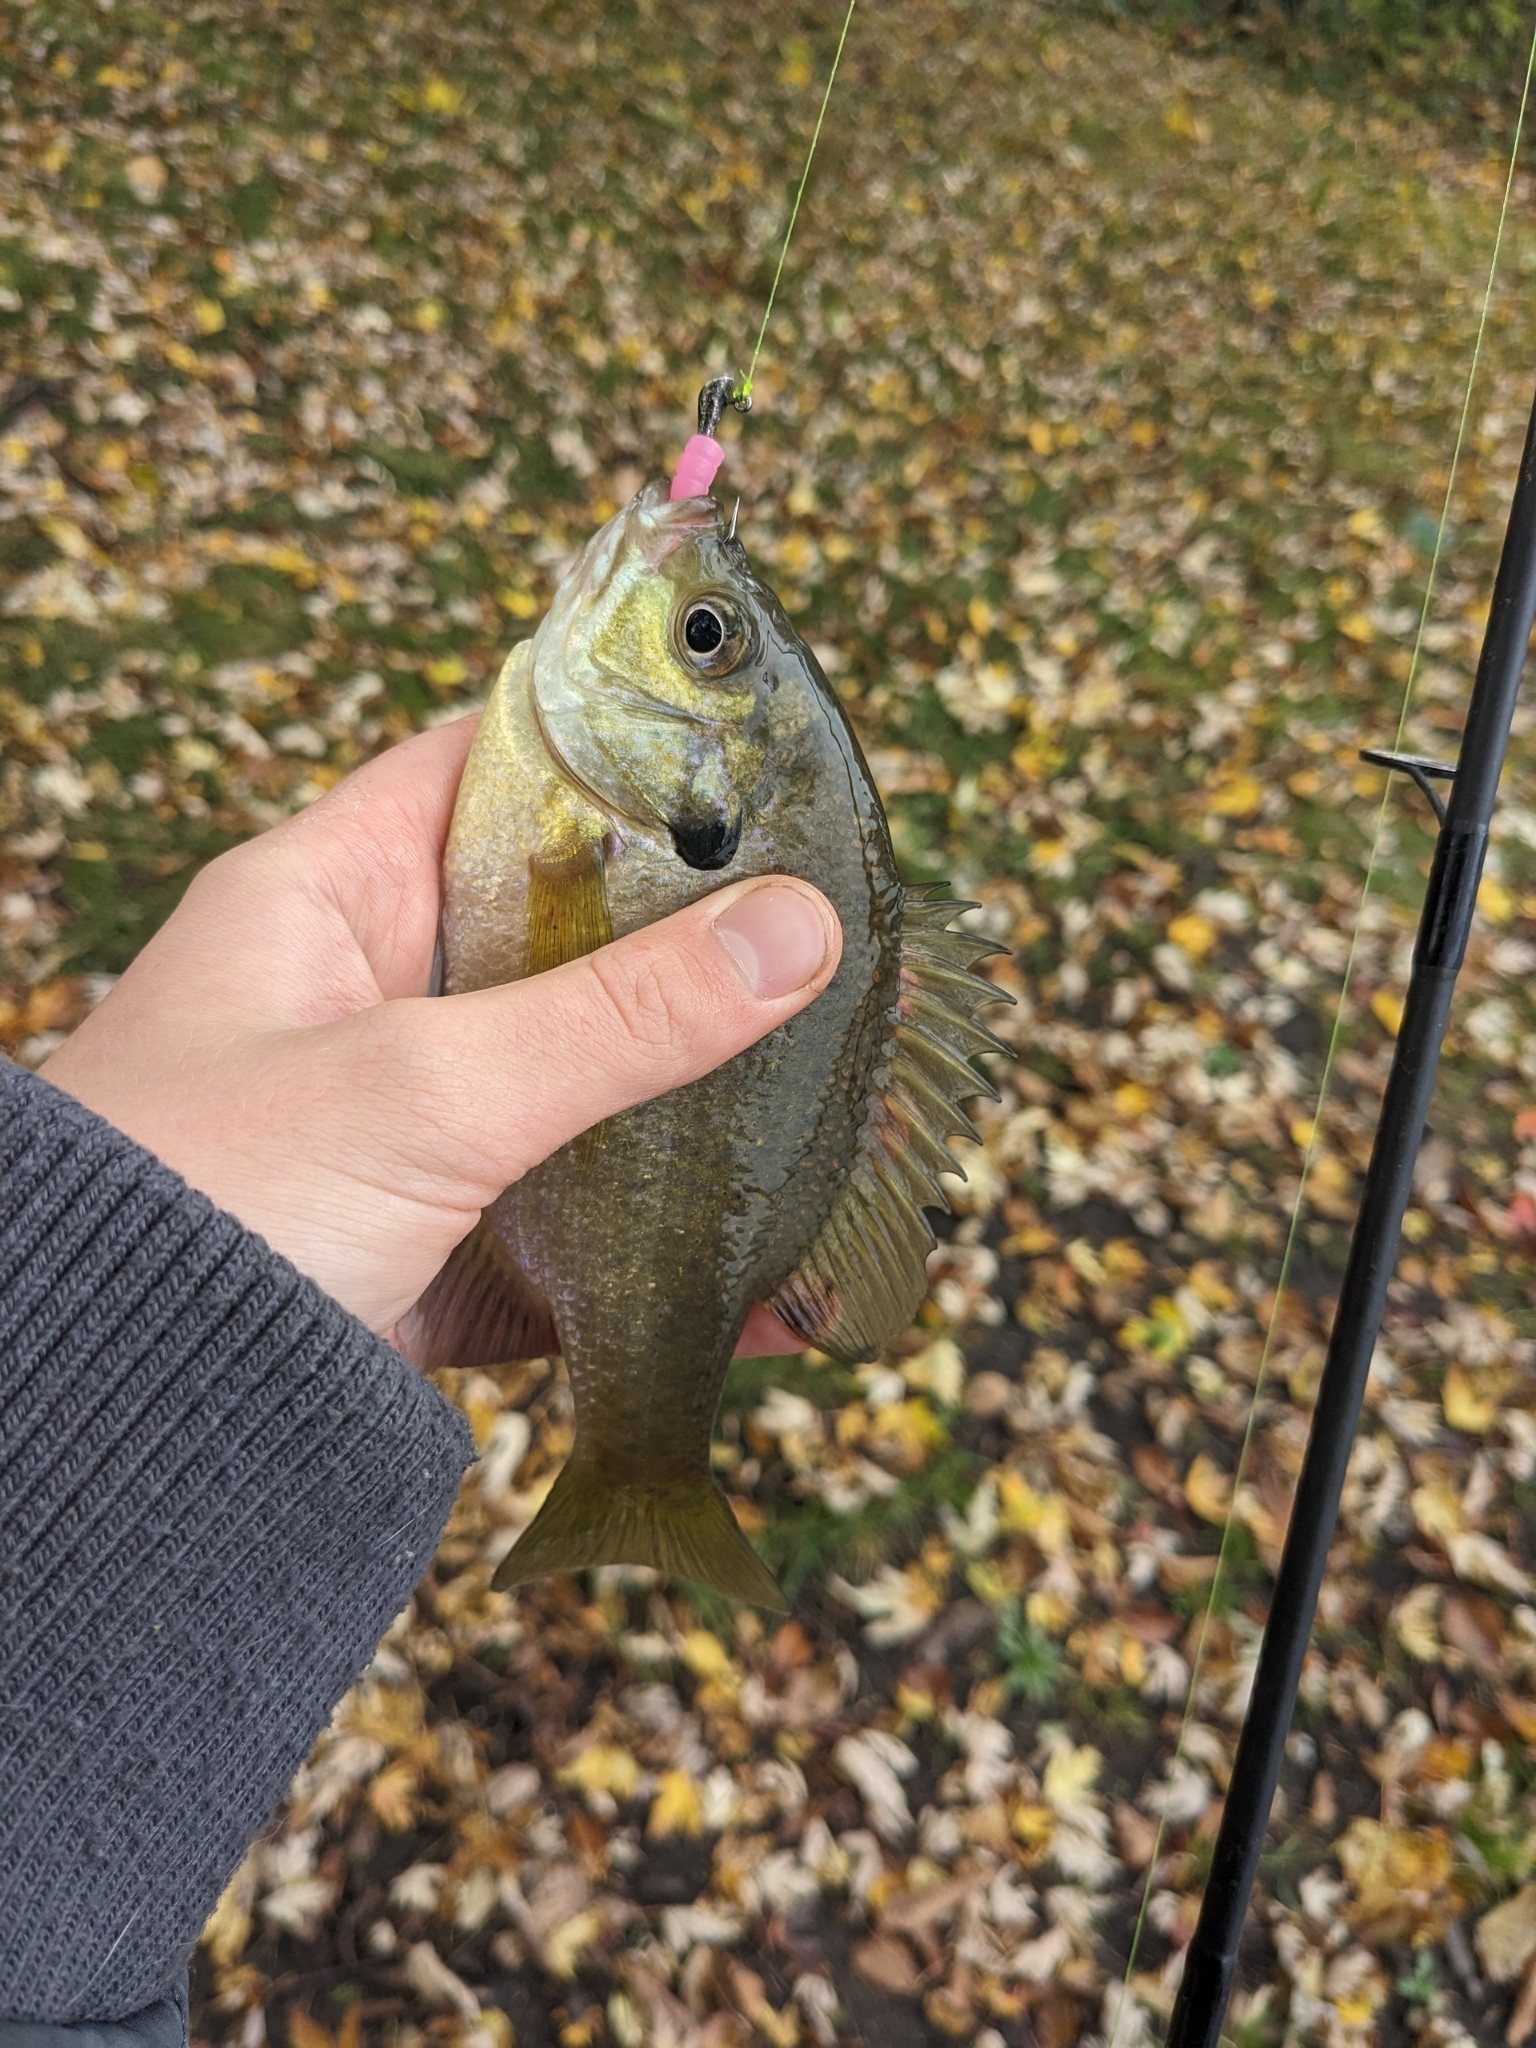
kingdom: Animalia
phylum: Chordata
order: Perciformes
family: Centrarchidae
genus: Lepomis
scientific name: Lepomis macrochirus
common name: Bluegill
